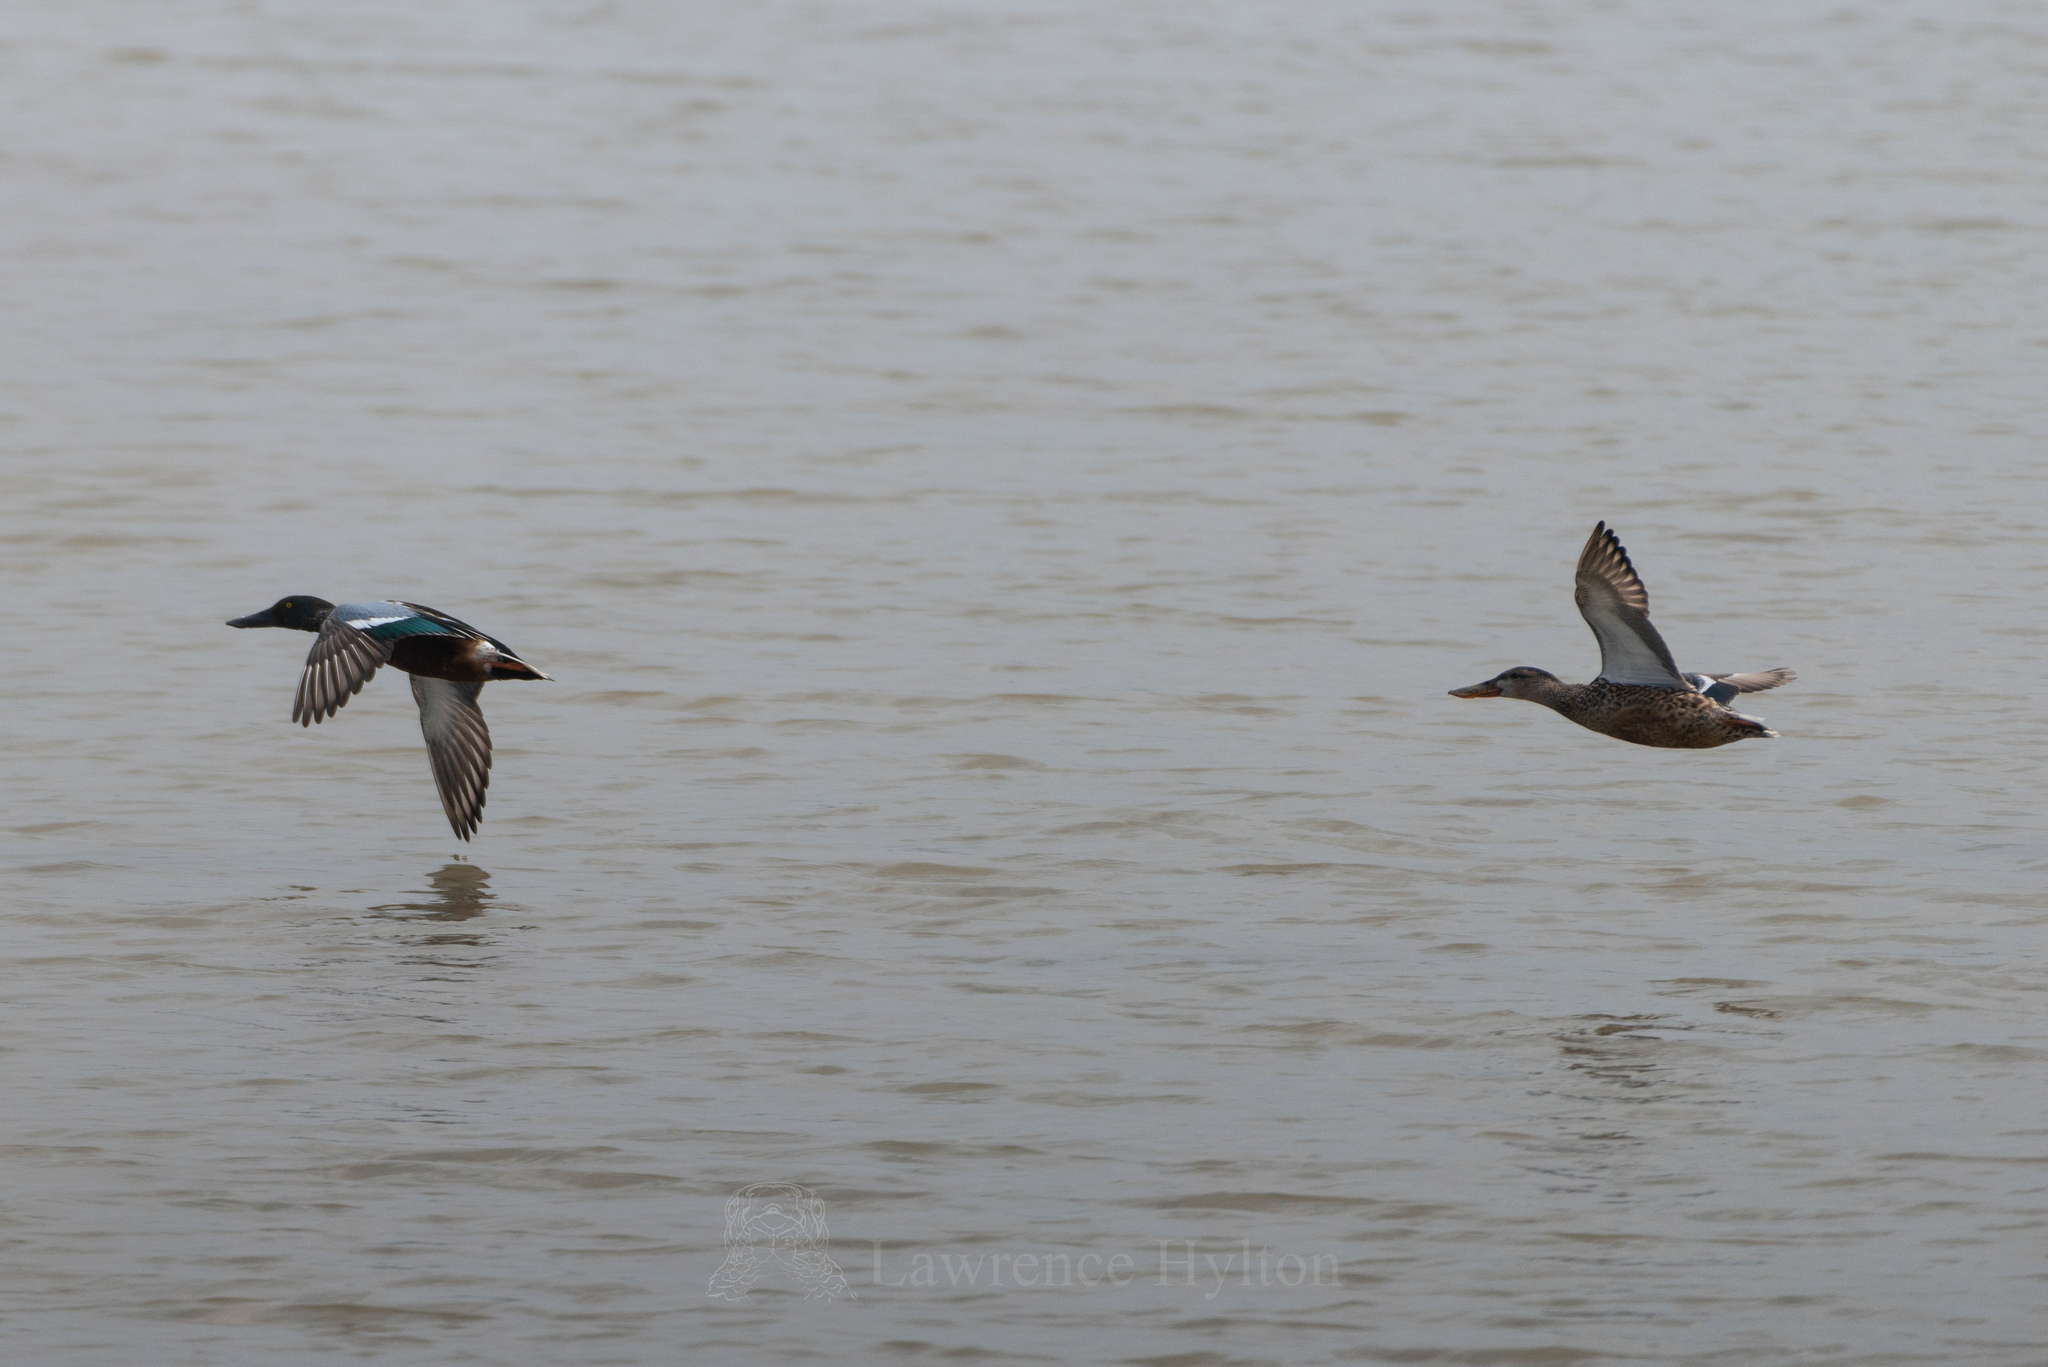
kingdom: Animalia
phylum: Chordata
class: Aves
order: Anseriformes
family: Anatidae
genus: Spatula
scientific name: Spatula clypeata
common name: Northern shoveler
